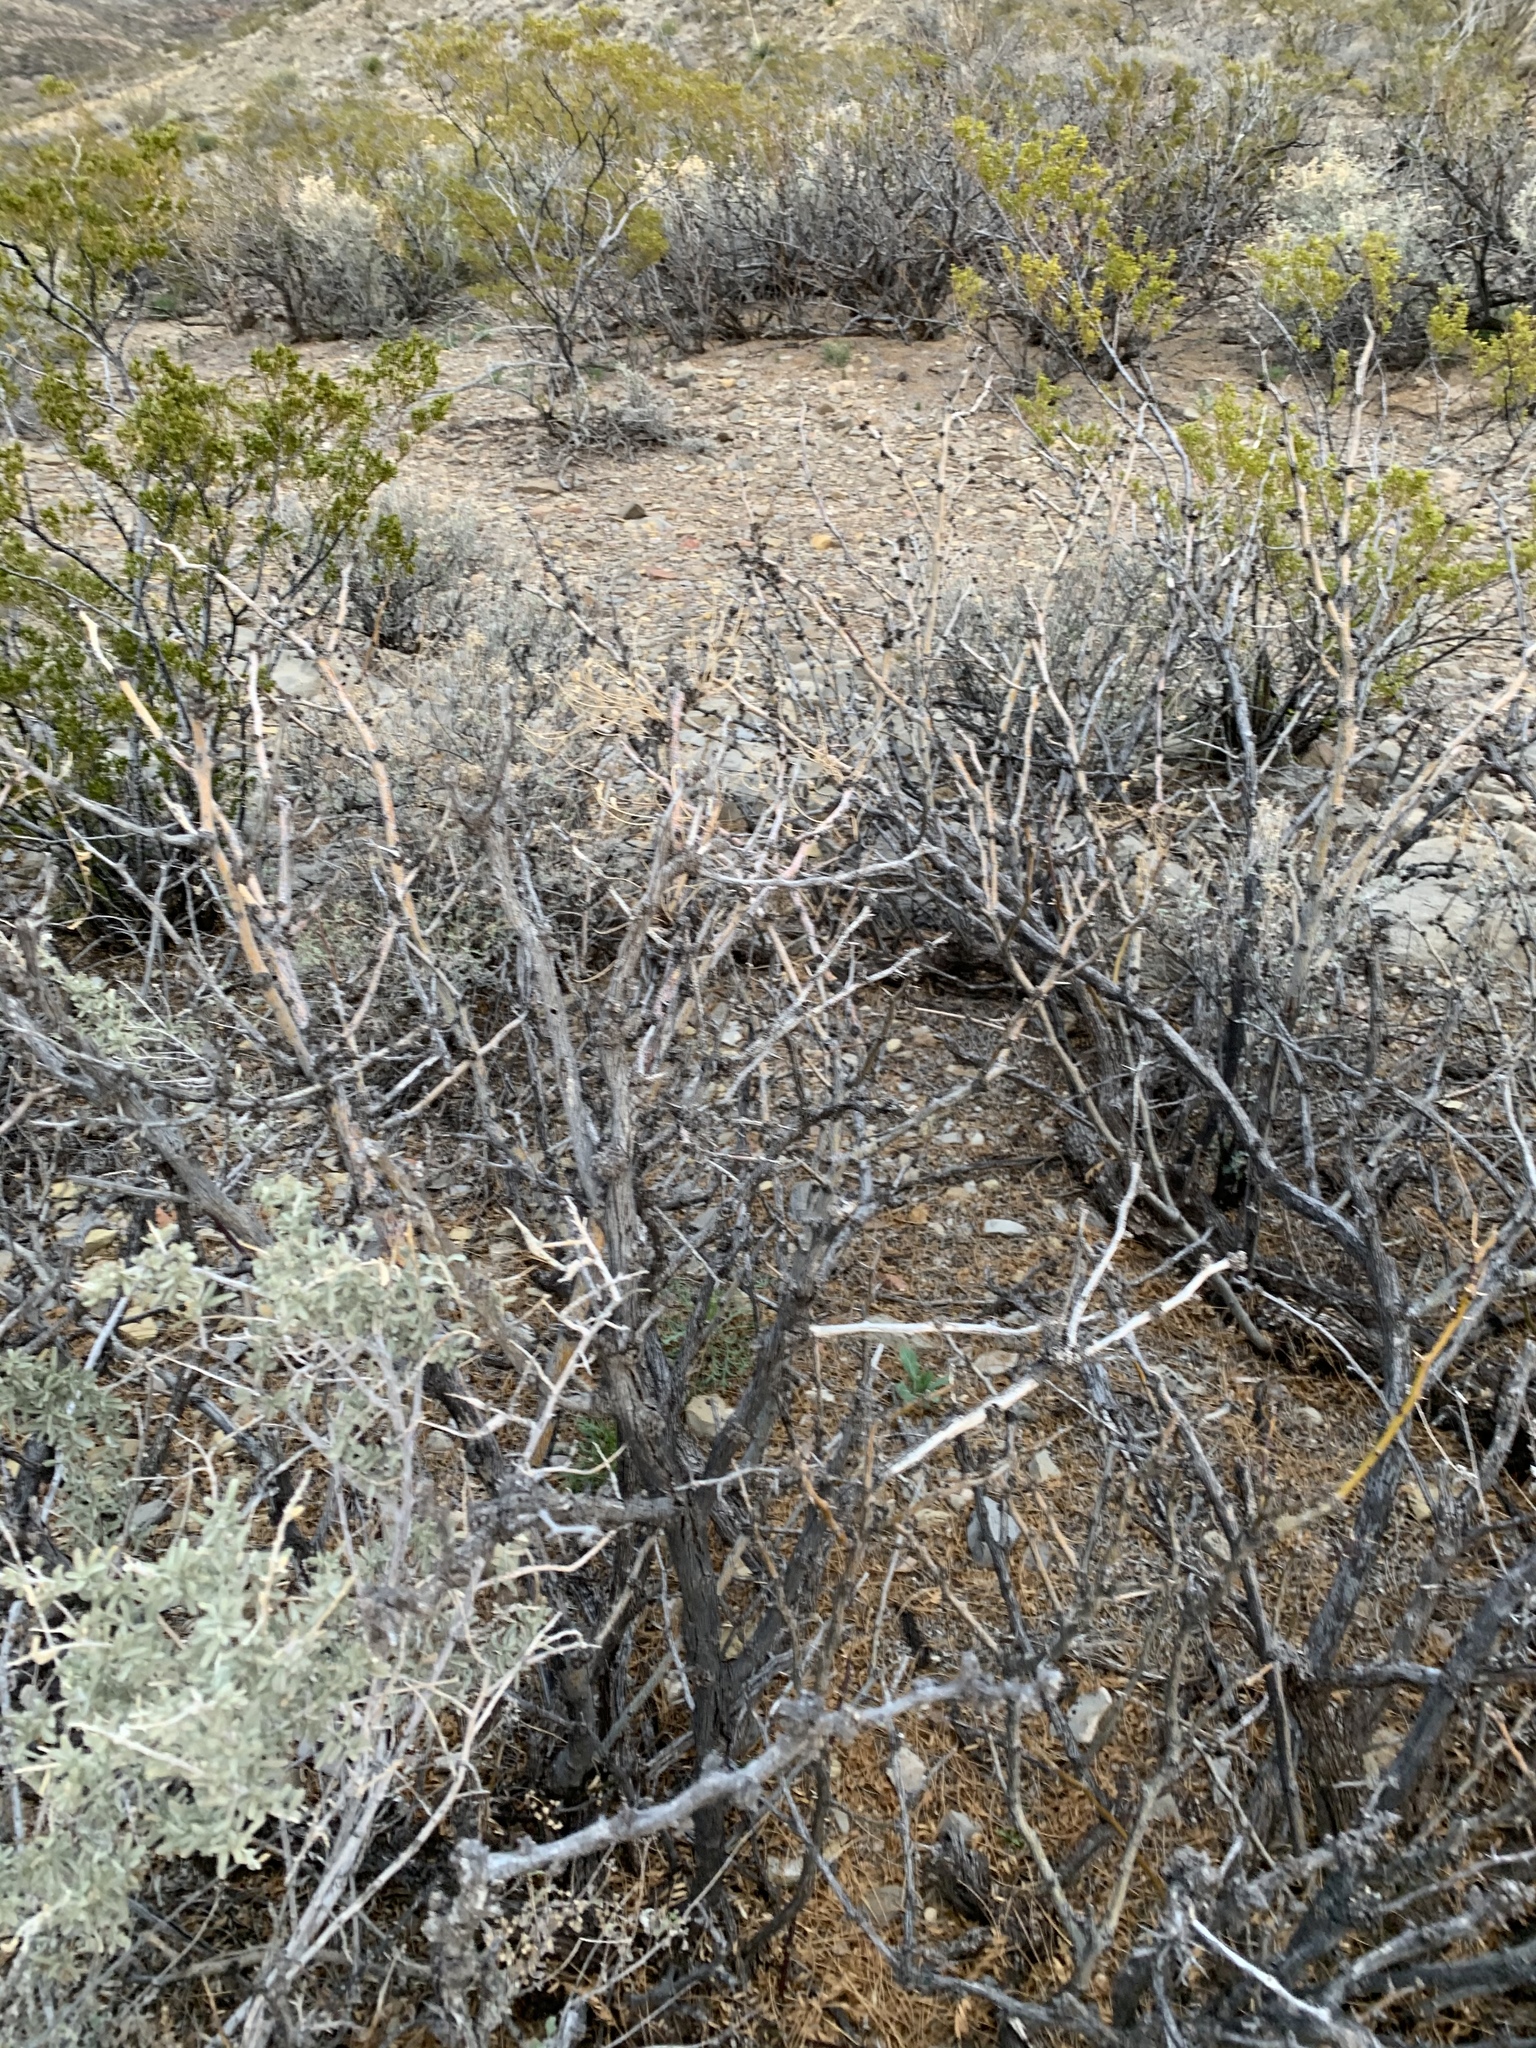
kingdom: Plantae
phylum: Tracheophyta
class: Magnoliopsida
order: Fabales
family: Fabaceae
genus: Prosopis
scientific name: Prosopis glandulosa
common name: Honey mesquite
